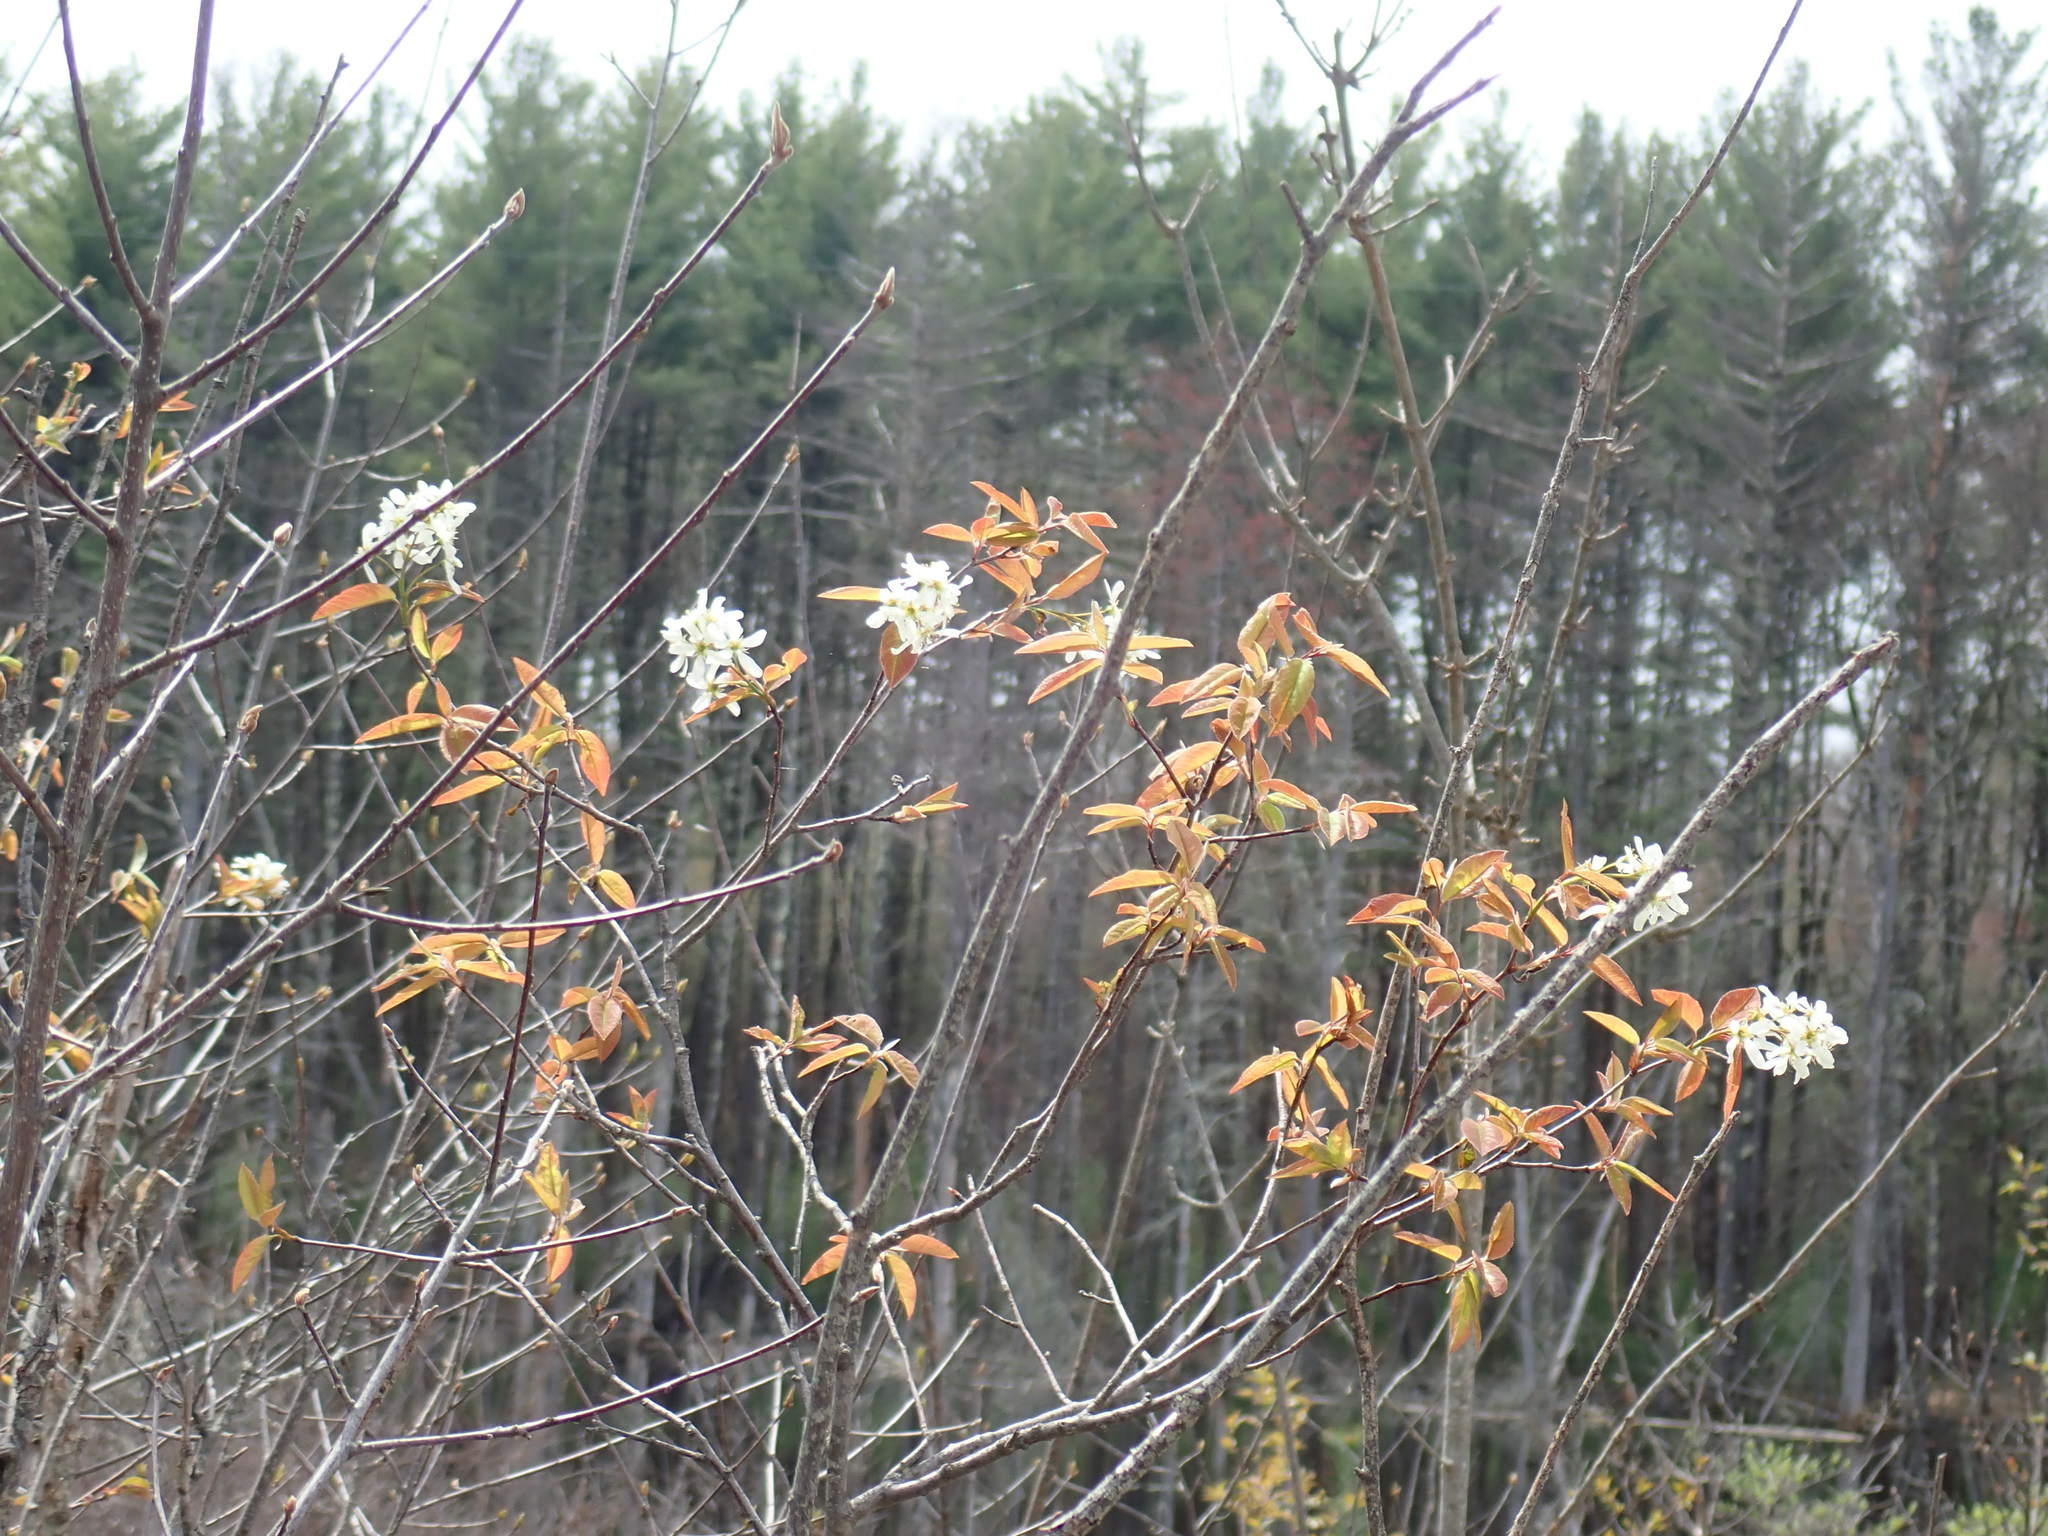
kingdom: Plantae
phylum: Tracheophyta
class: Magnoliopsida
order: Rosales
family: Rosaceae
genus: Amelanchier
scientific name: Amelanchier
